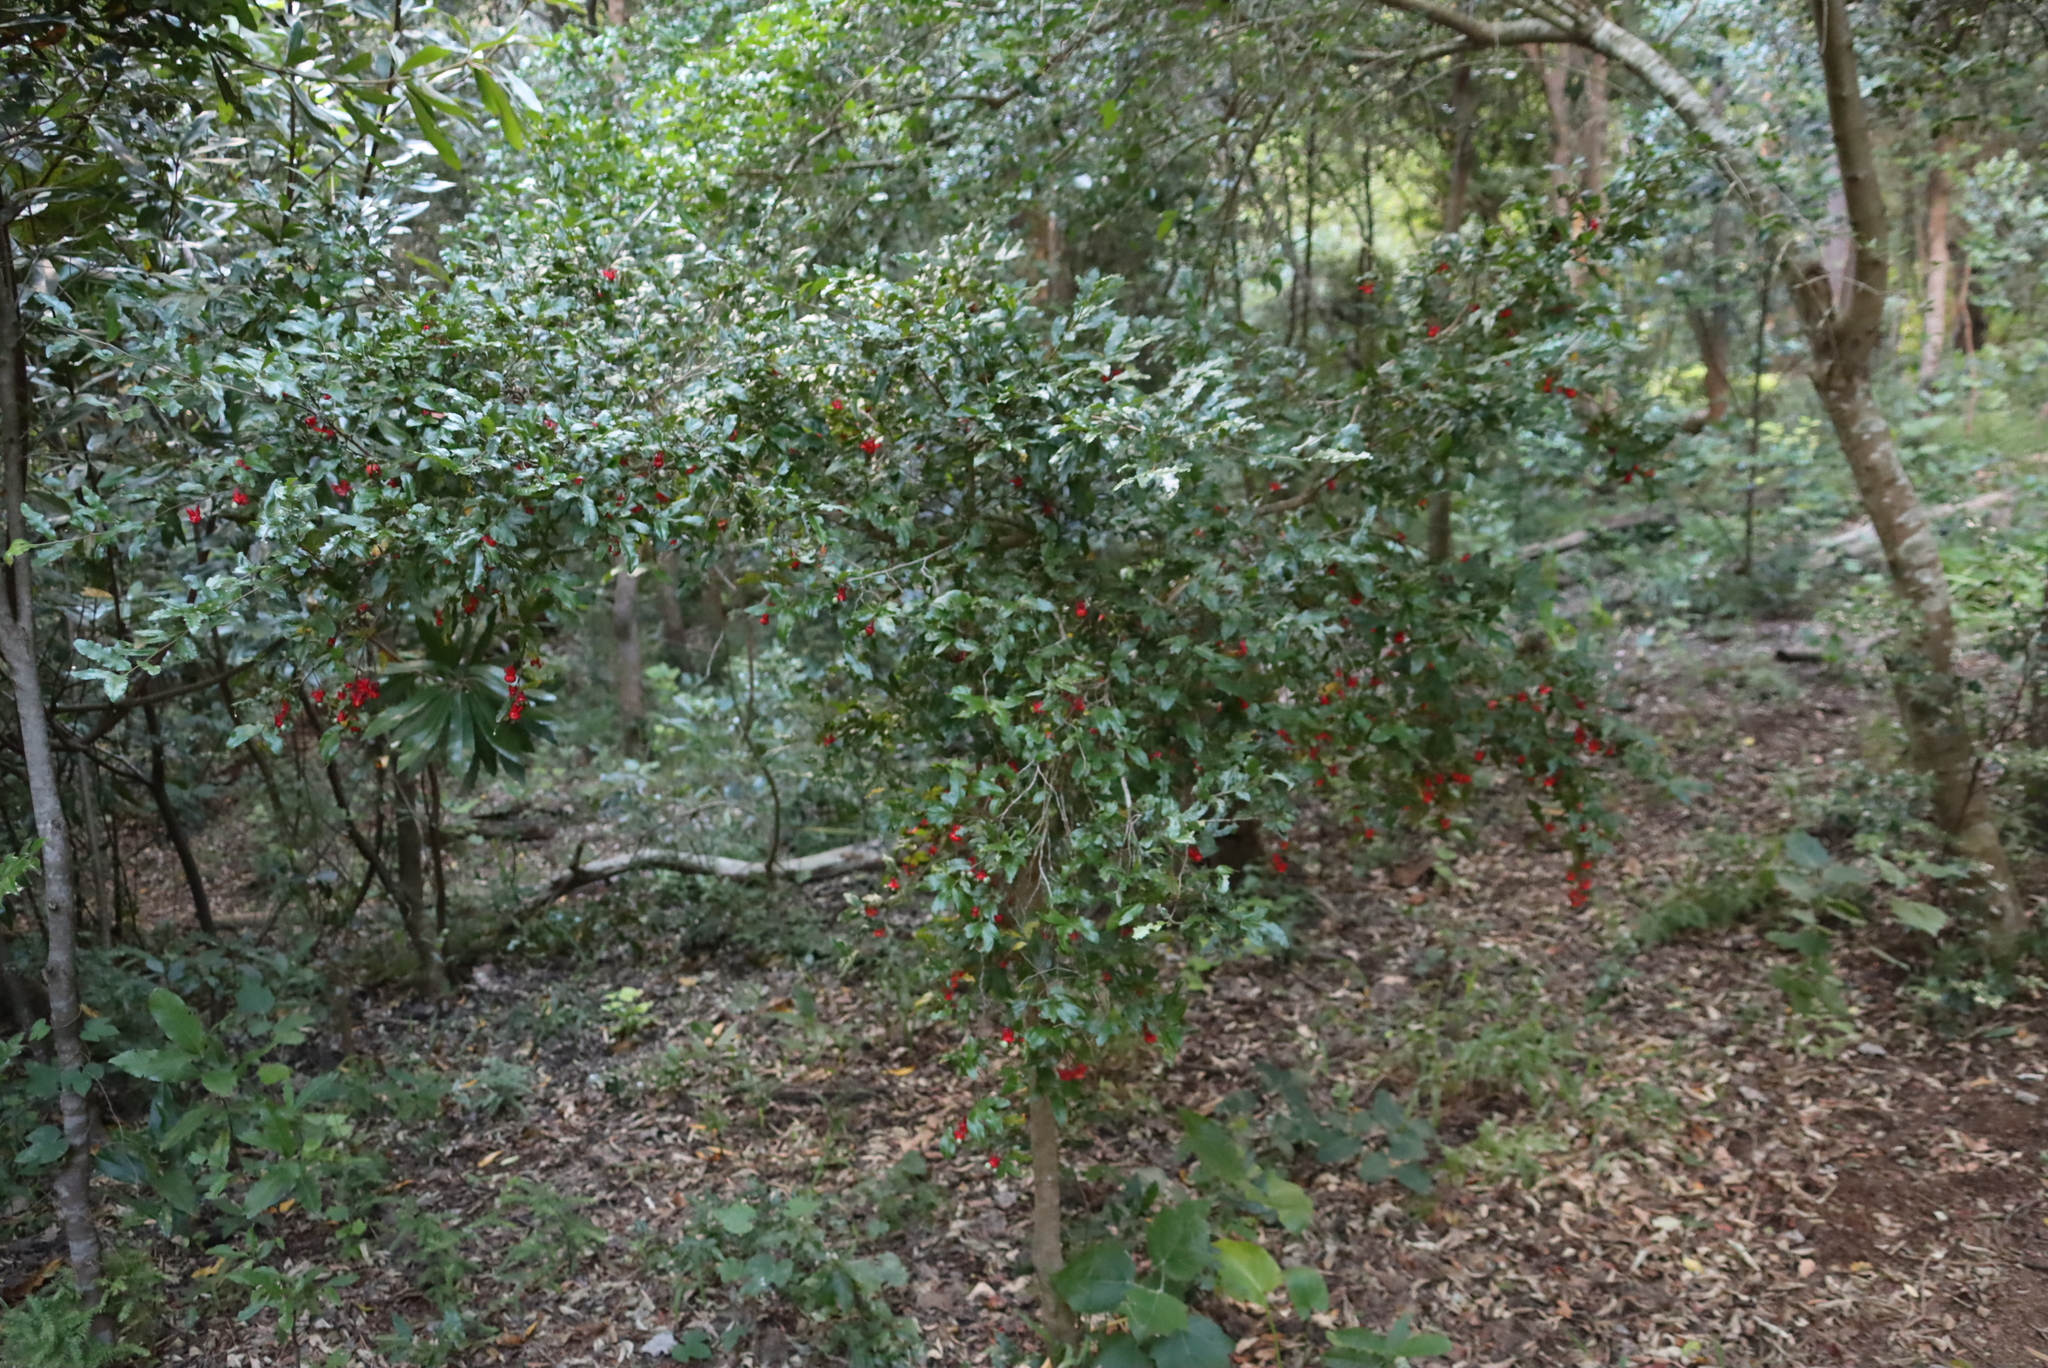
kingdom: Plantae
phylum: Tracheophyta
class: Magnoliopsida
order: Malpighiales
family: Ochnaceae
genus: Ochna
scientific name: Ochna serrulata
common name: Mickey mouse plant
